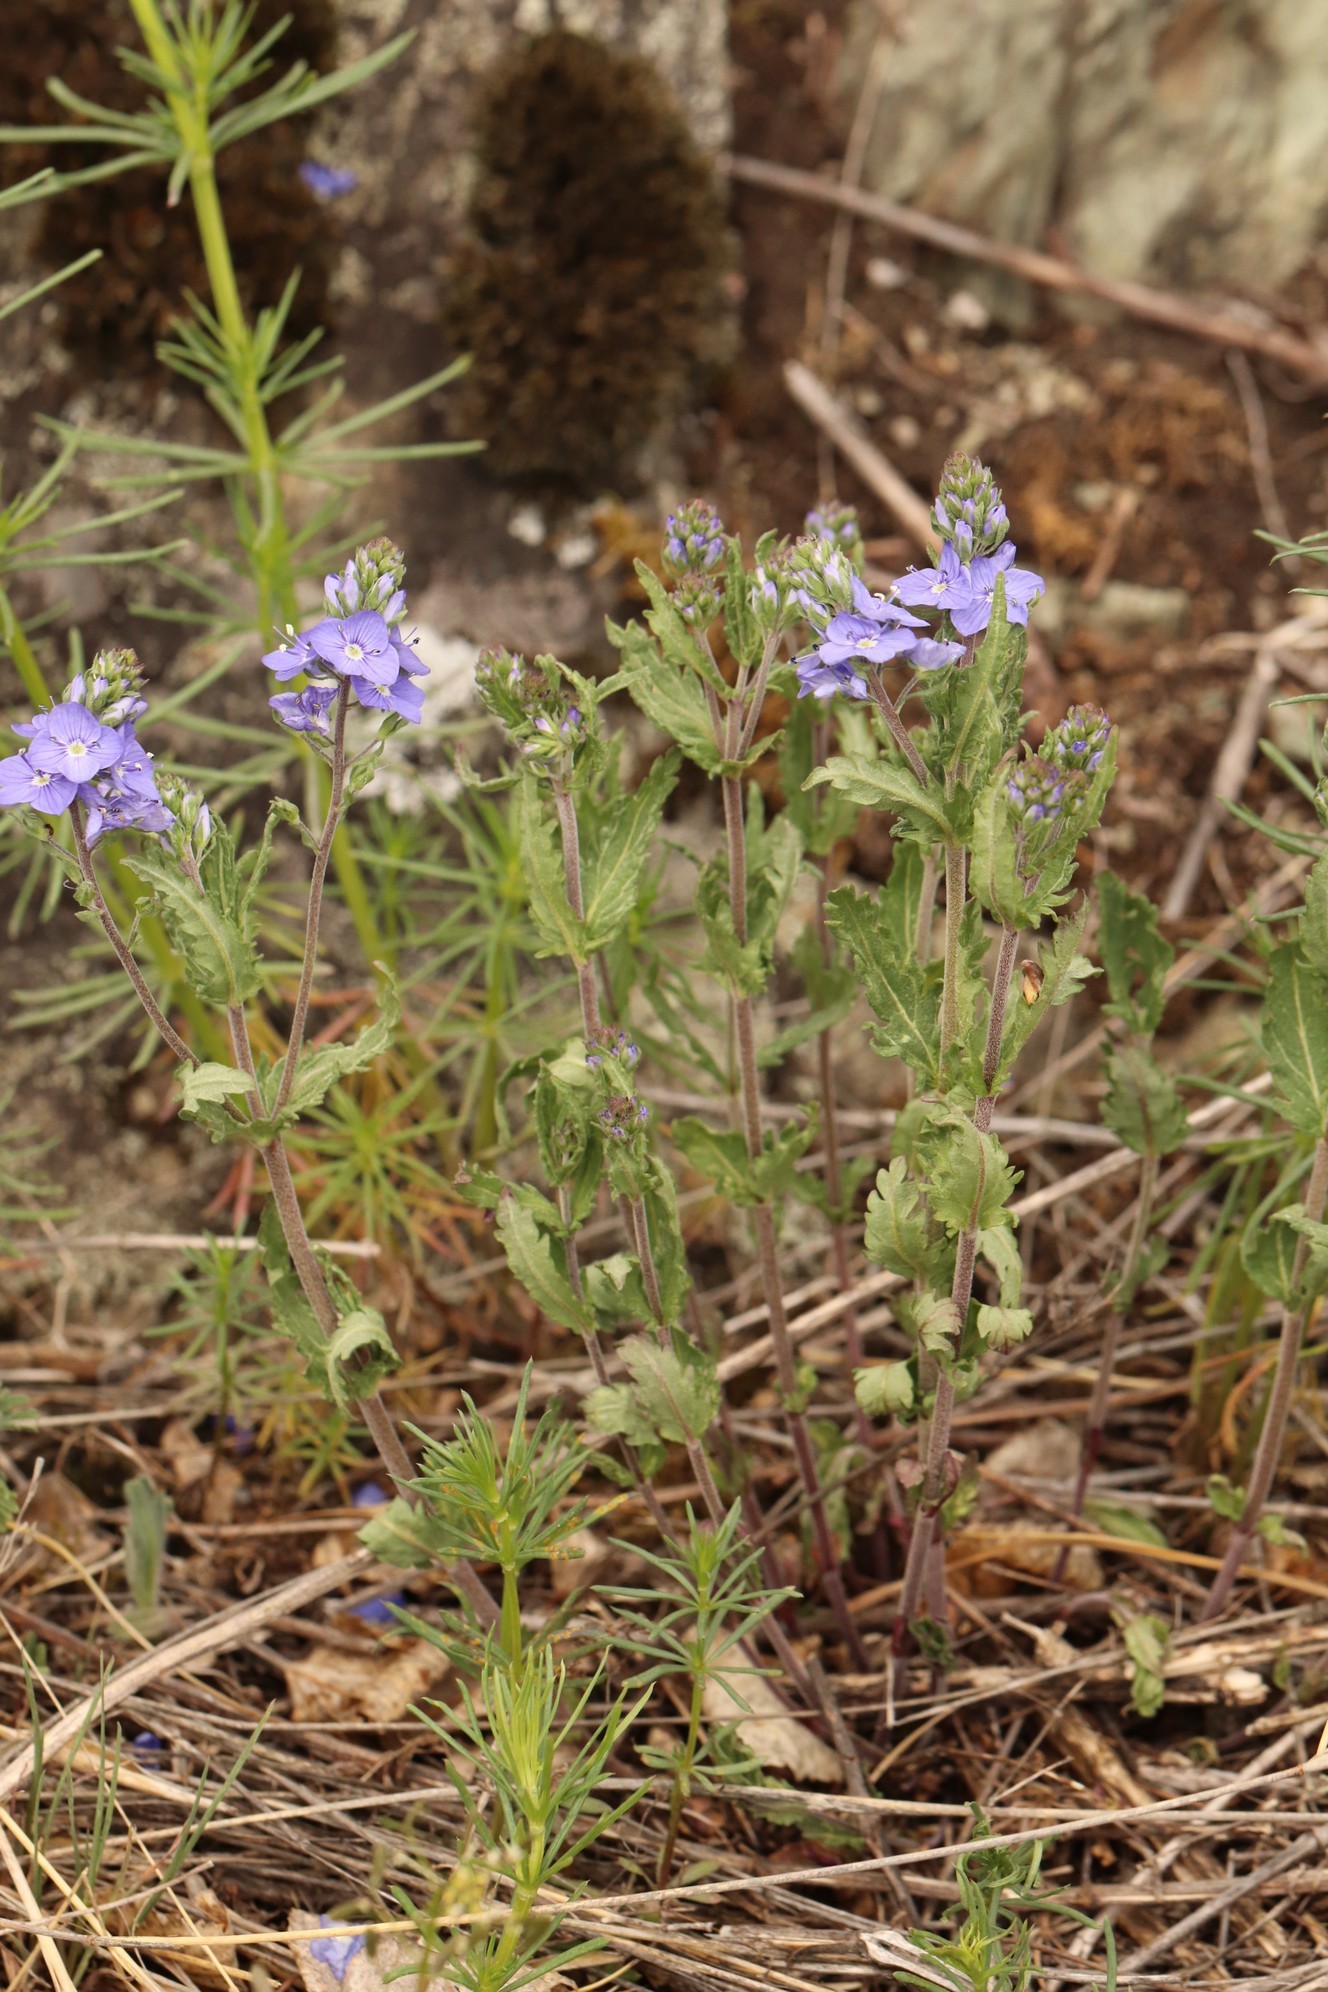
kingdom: Plantae
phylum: Tracheophyta
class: Magnoliopsida
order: Lamiales
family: Plantaginaceae
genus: Veronica
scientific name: Veronica krylovii
